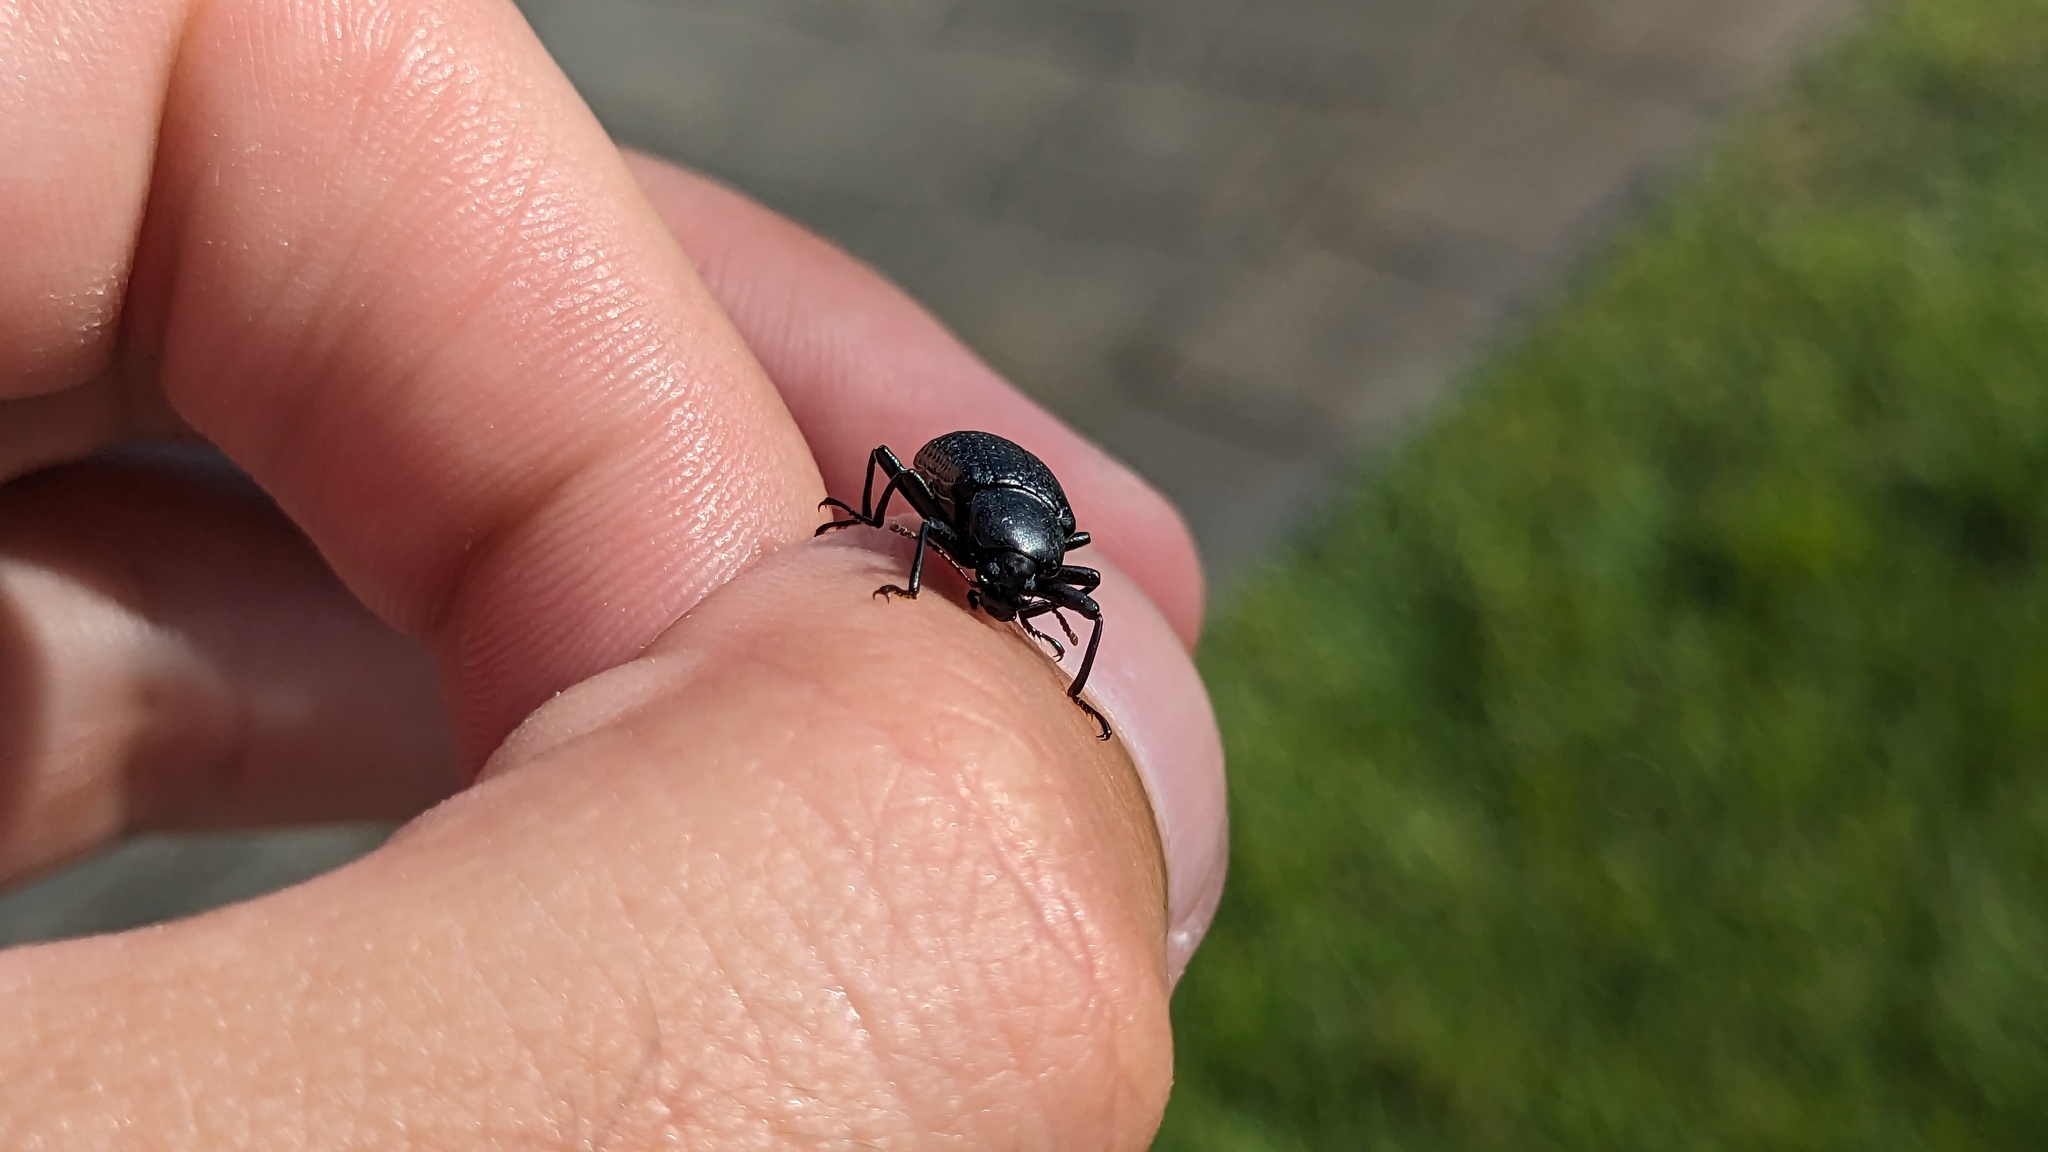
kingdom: Animalia
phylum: Arthropoda
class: Insecta
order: Coleoptera
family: Tenebrionidae
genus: Glyptotus
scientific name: Glyptotus cribratus
